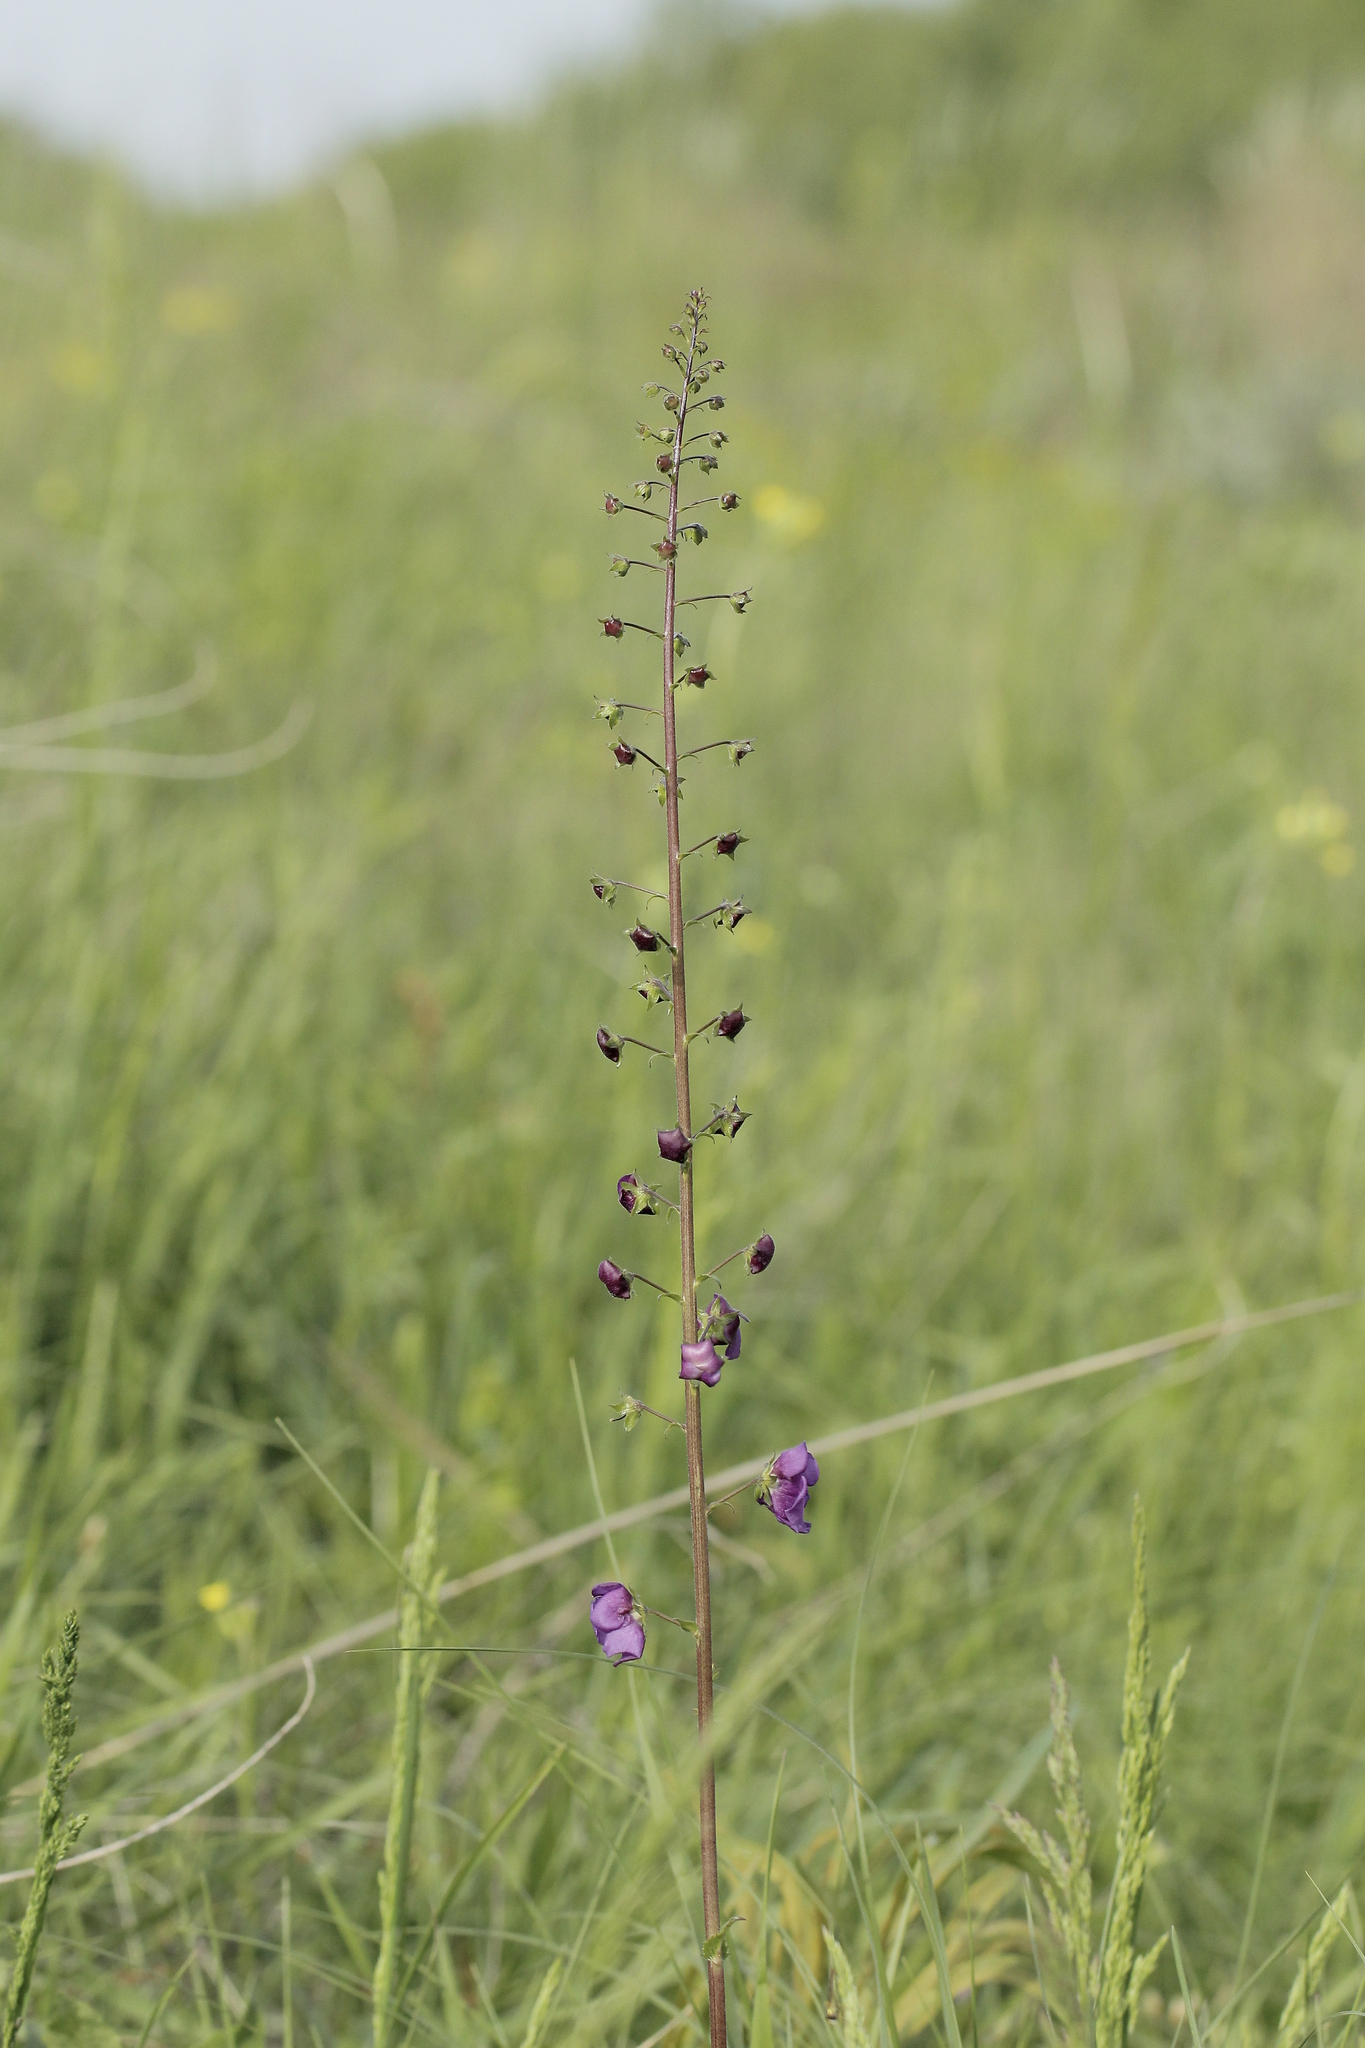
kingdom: Plantae
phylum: Tracheophyta
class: Magnoliopsida
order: Lamiales
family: Scrophulariaceae
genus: Verbascum
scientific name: Verbascum phoeniceum
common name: Purple mullein
